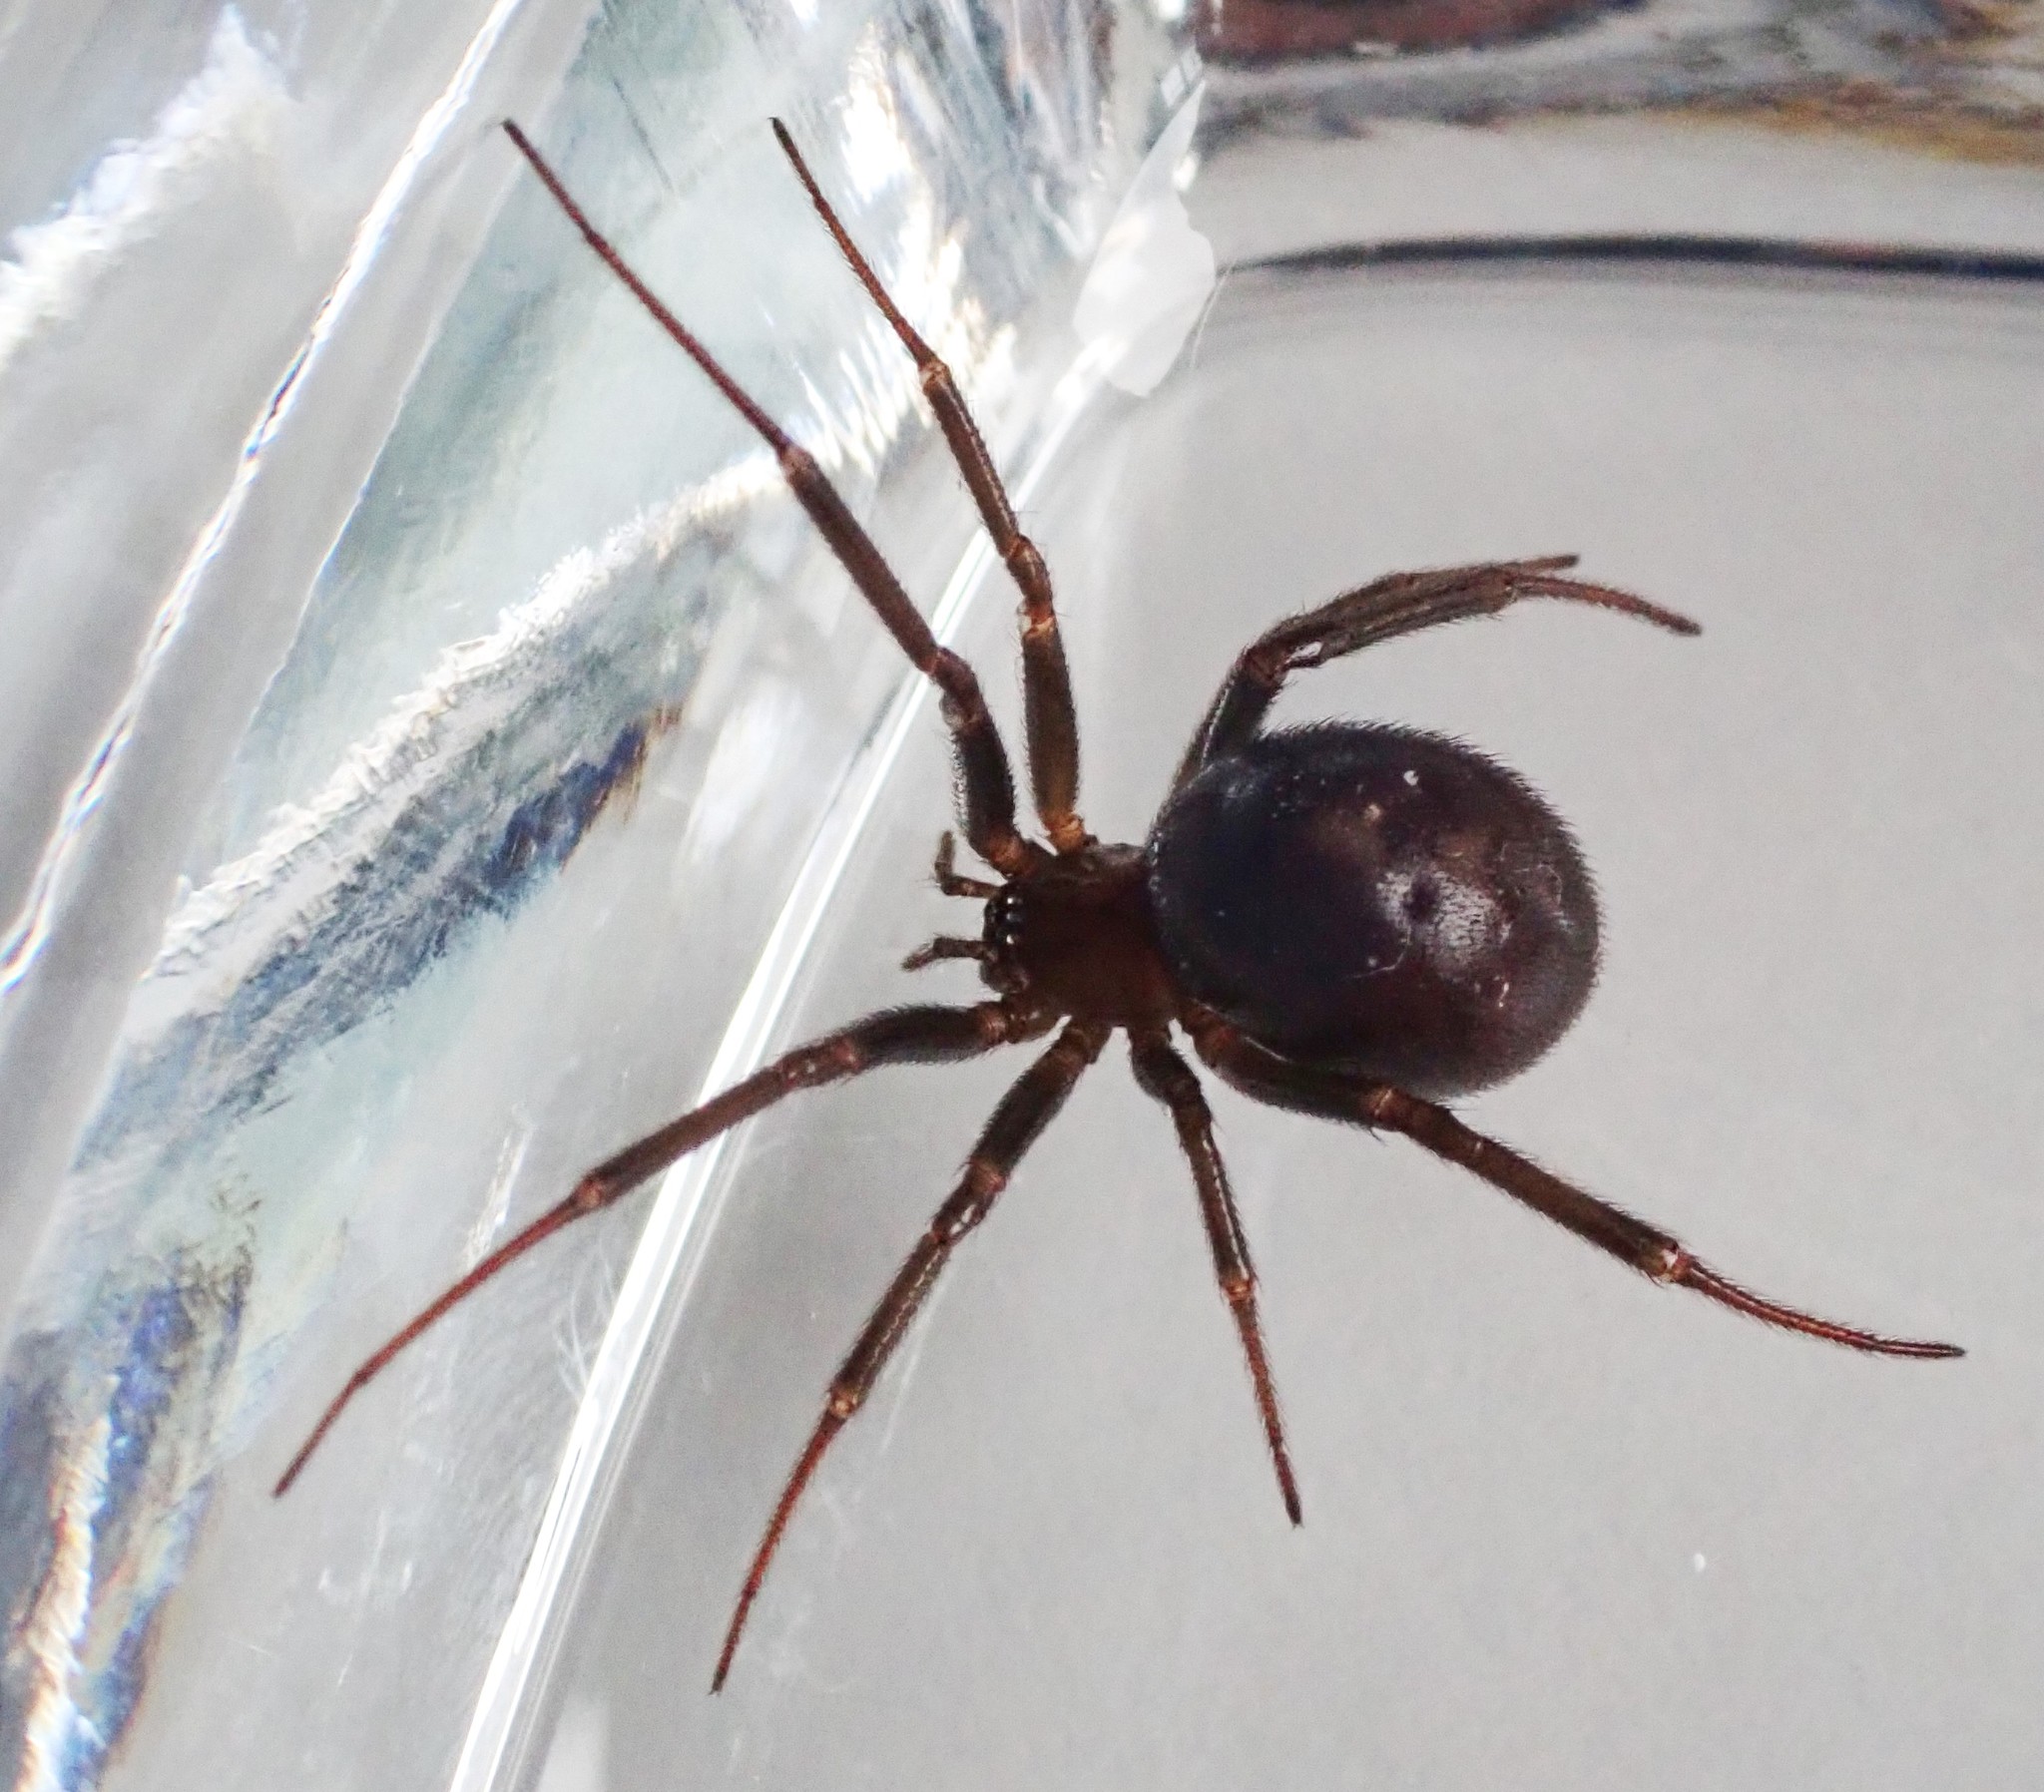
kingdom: Animalia
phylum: Arthropoda
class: Arachnida
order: Araneae
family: Theridiidae
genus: Steatoda
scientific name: Steatoda grossa
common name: False black widow
